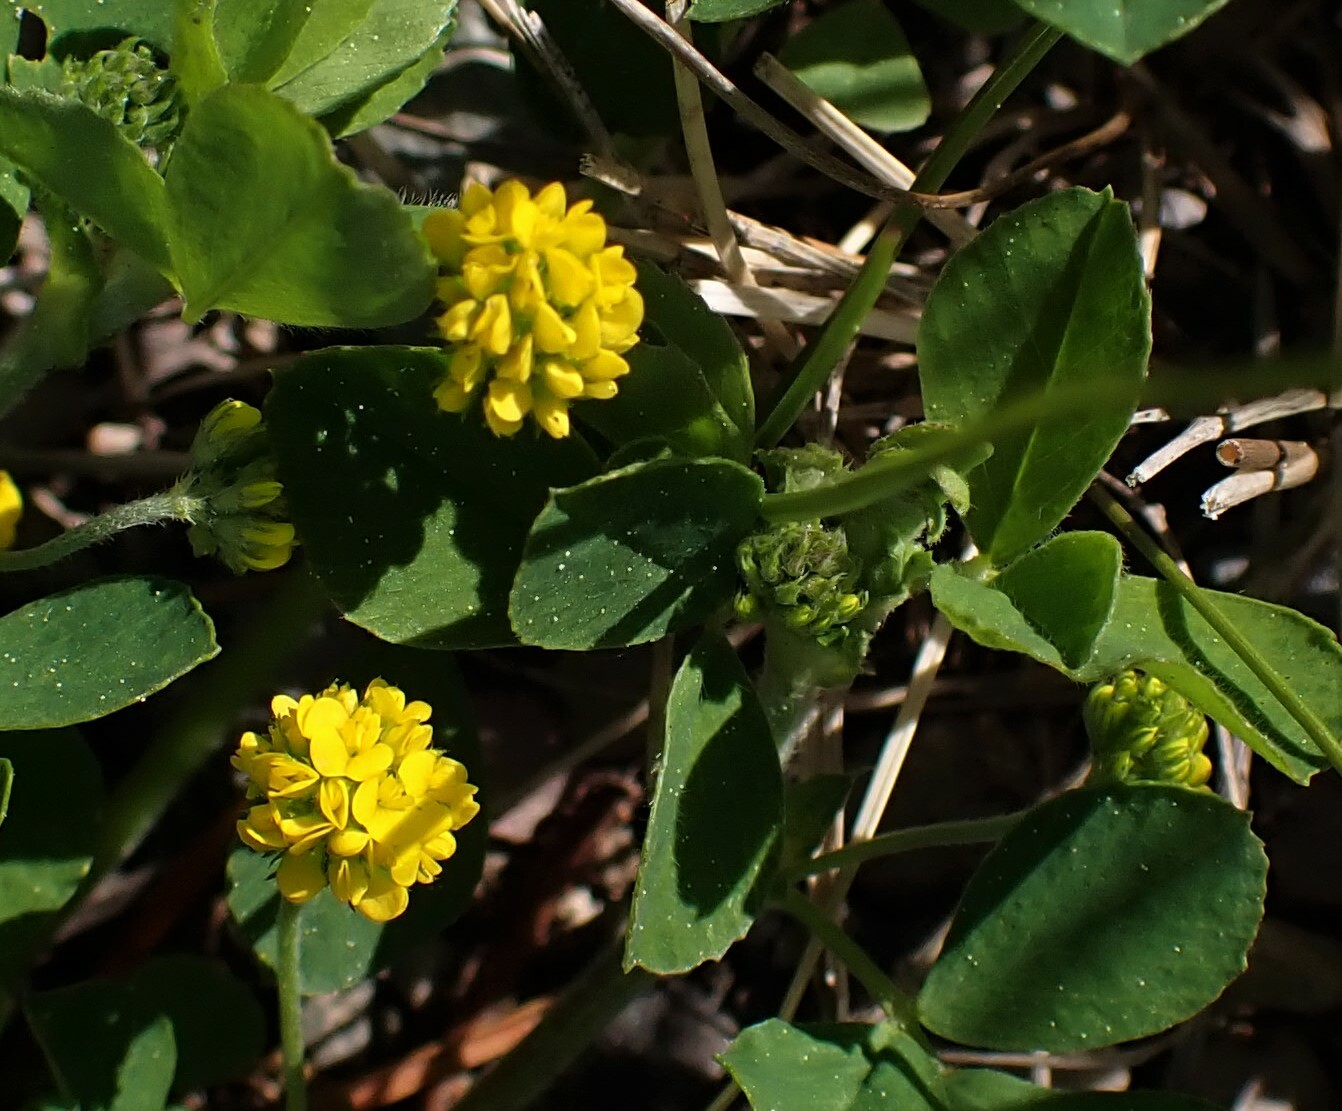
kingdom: Plantae
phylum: Tracheophyta
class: Magnoliopsida
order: Fabales
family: Fabaceae
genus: Medicago
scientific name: Medicago lupulina
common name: Black medick
